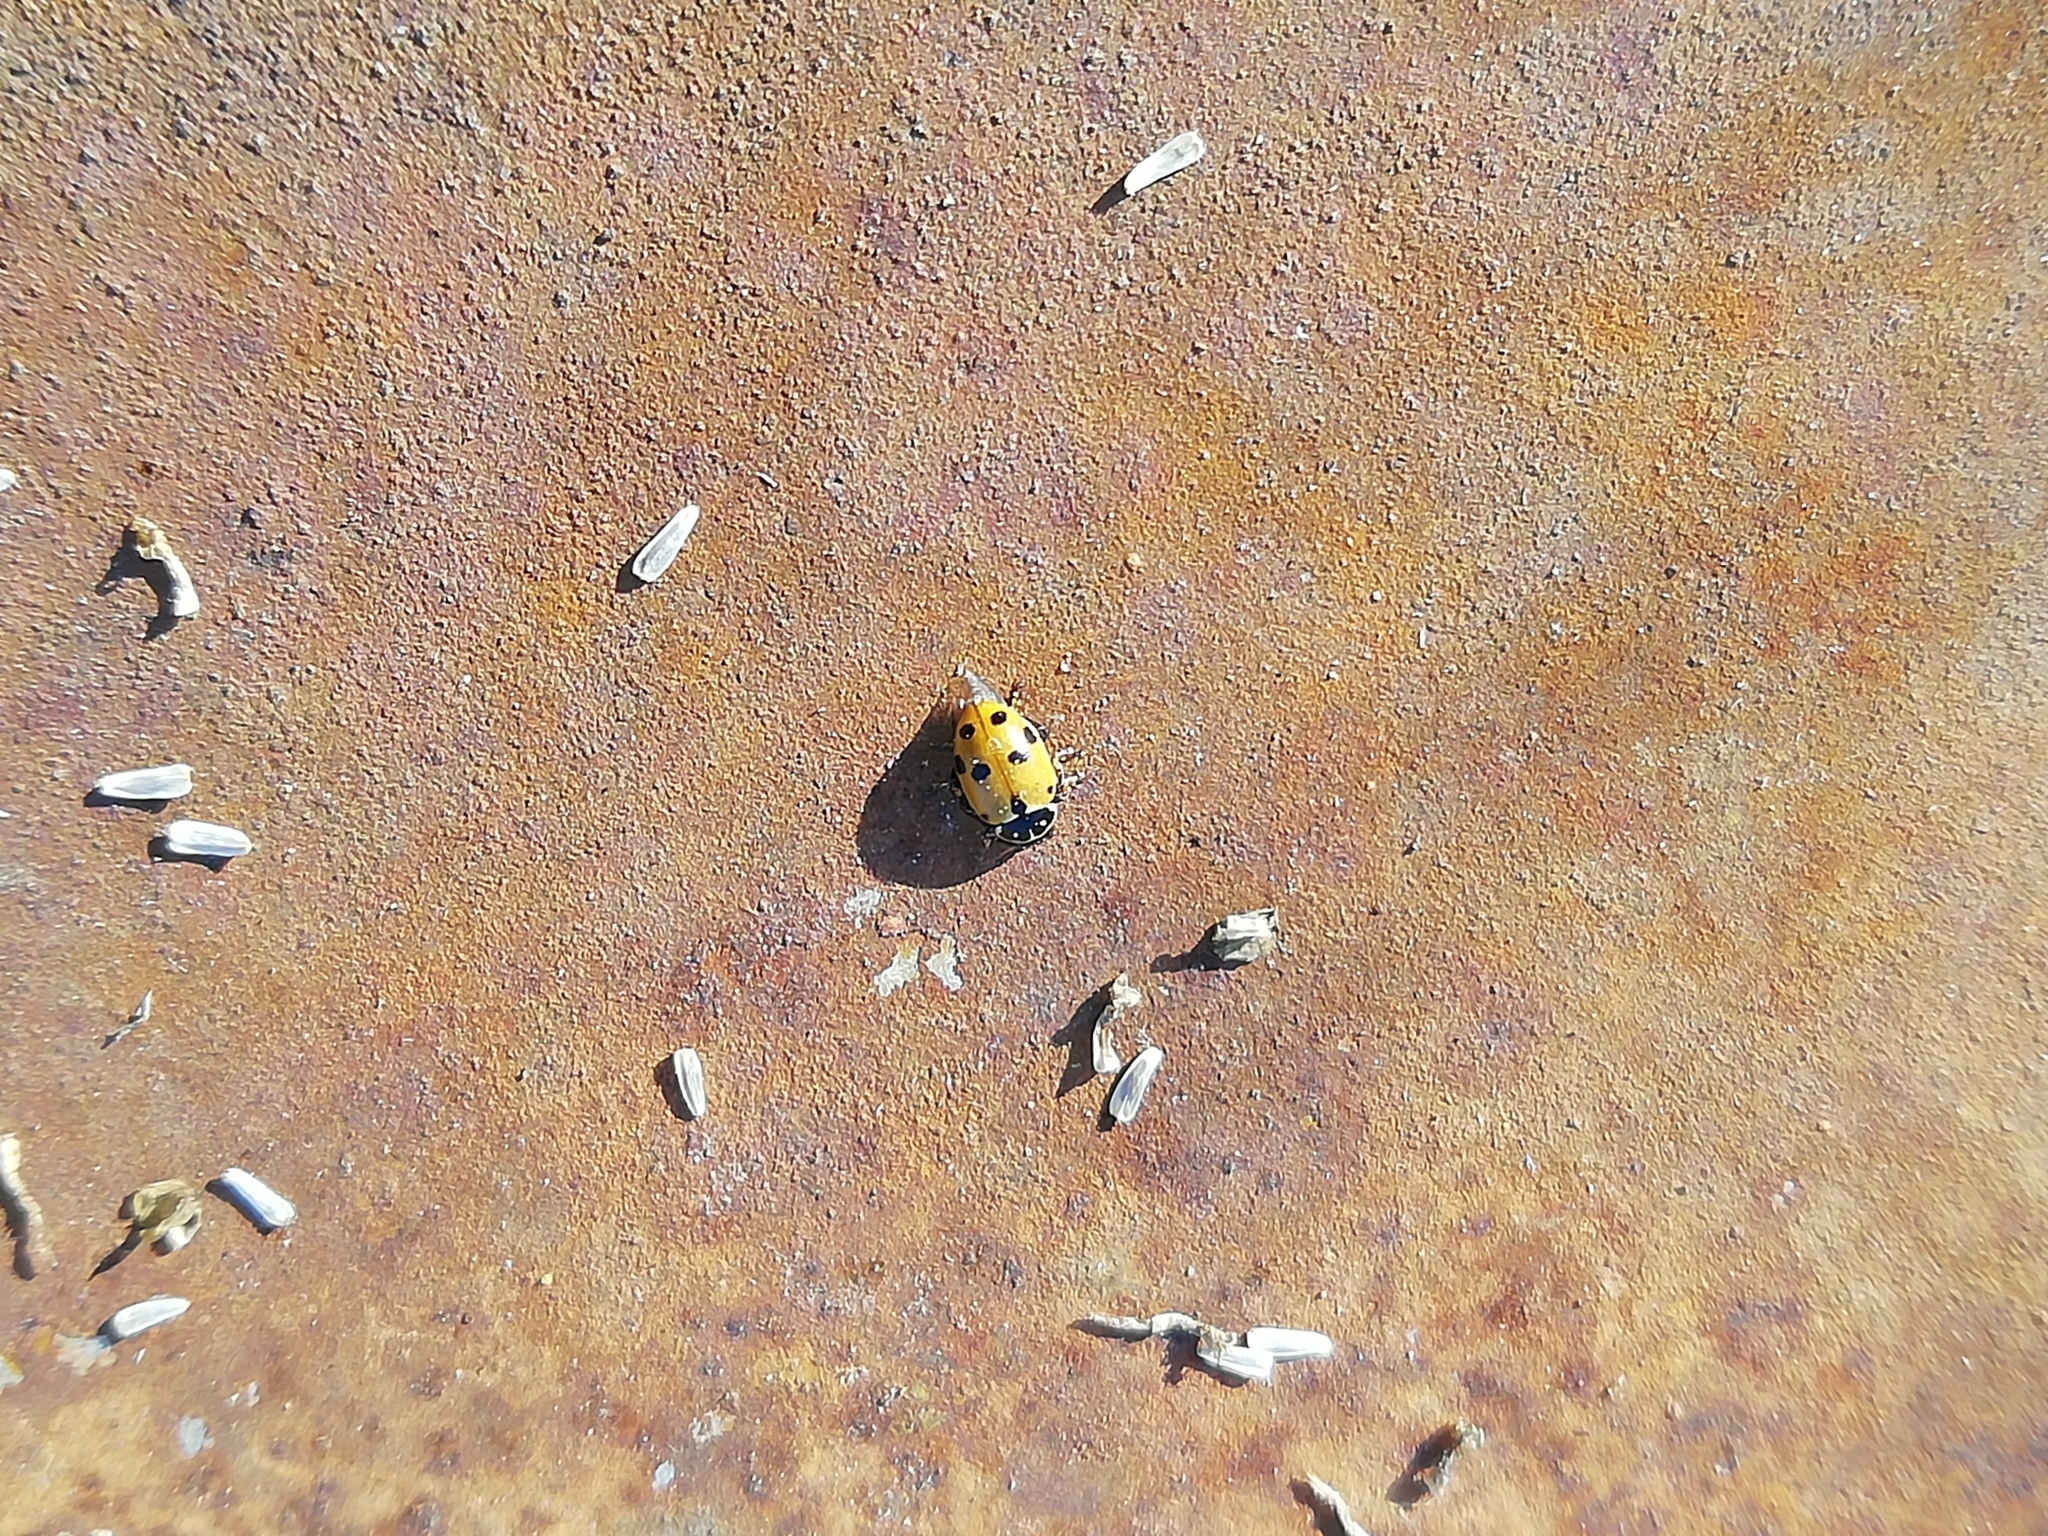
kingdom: Animalia
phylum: Arthropoda
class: Insecta
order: Coleoptera
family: Coccinellidae
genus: Hippodamia
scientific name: Hippodamia variegata
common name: Ladybird beetle
